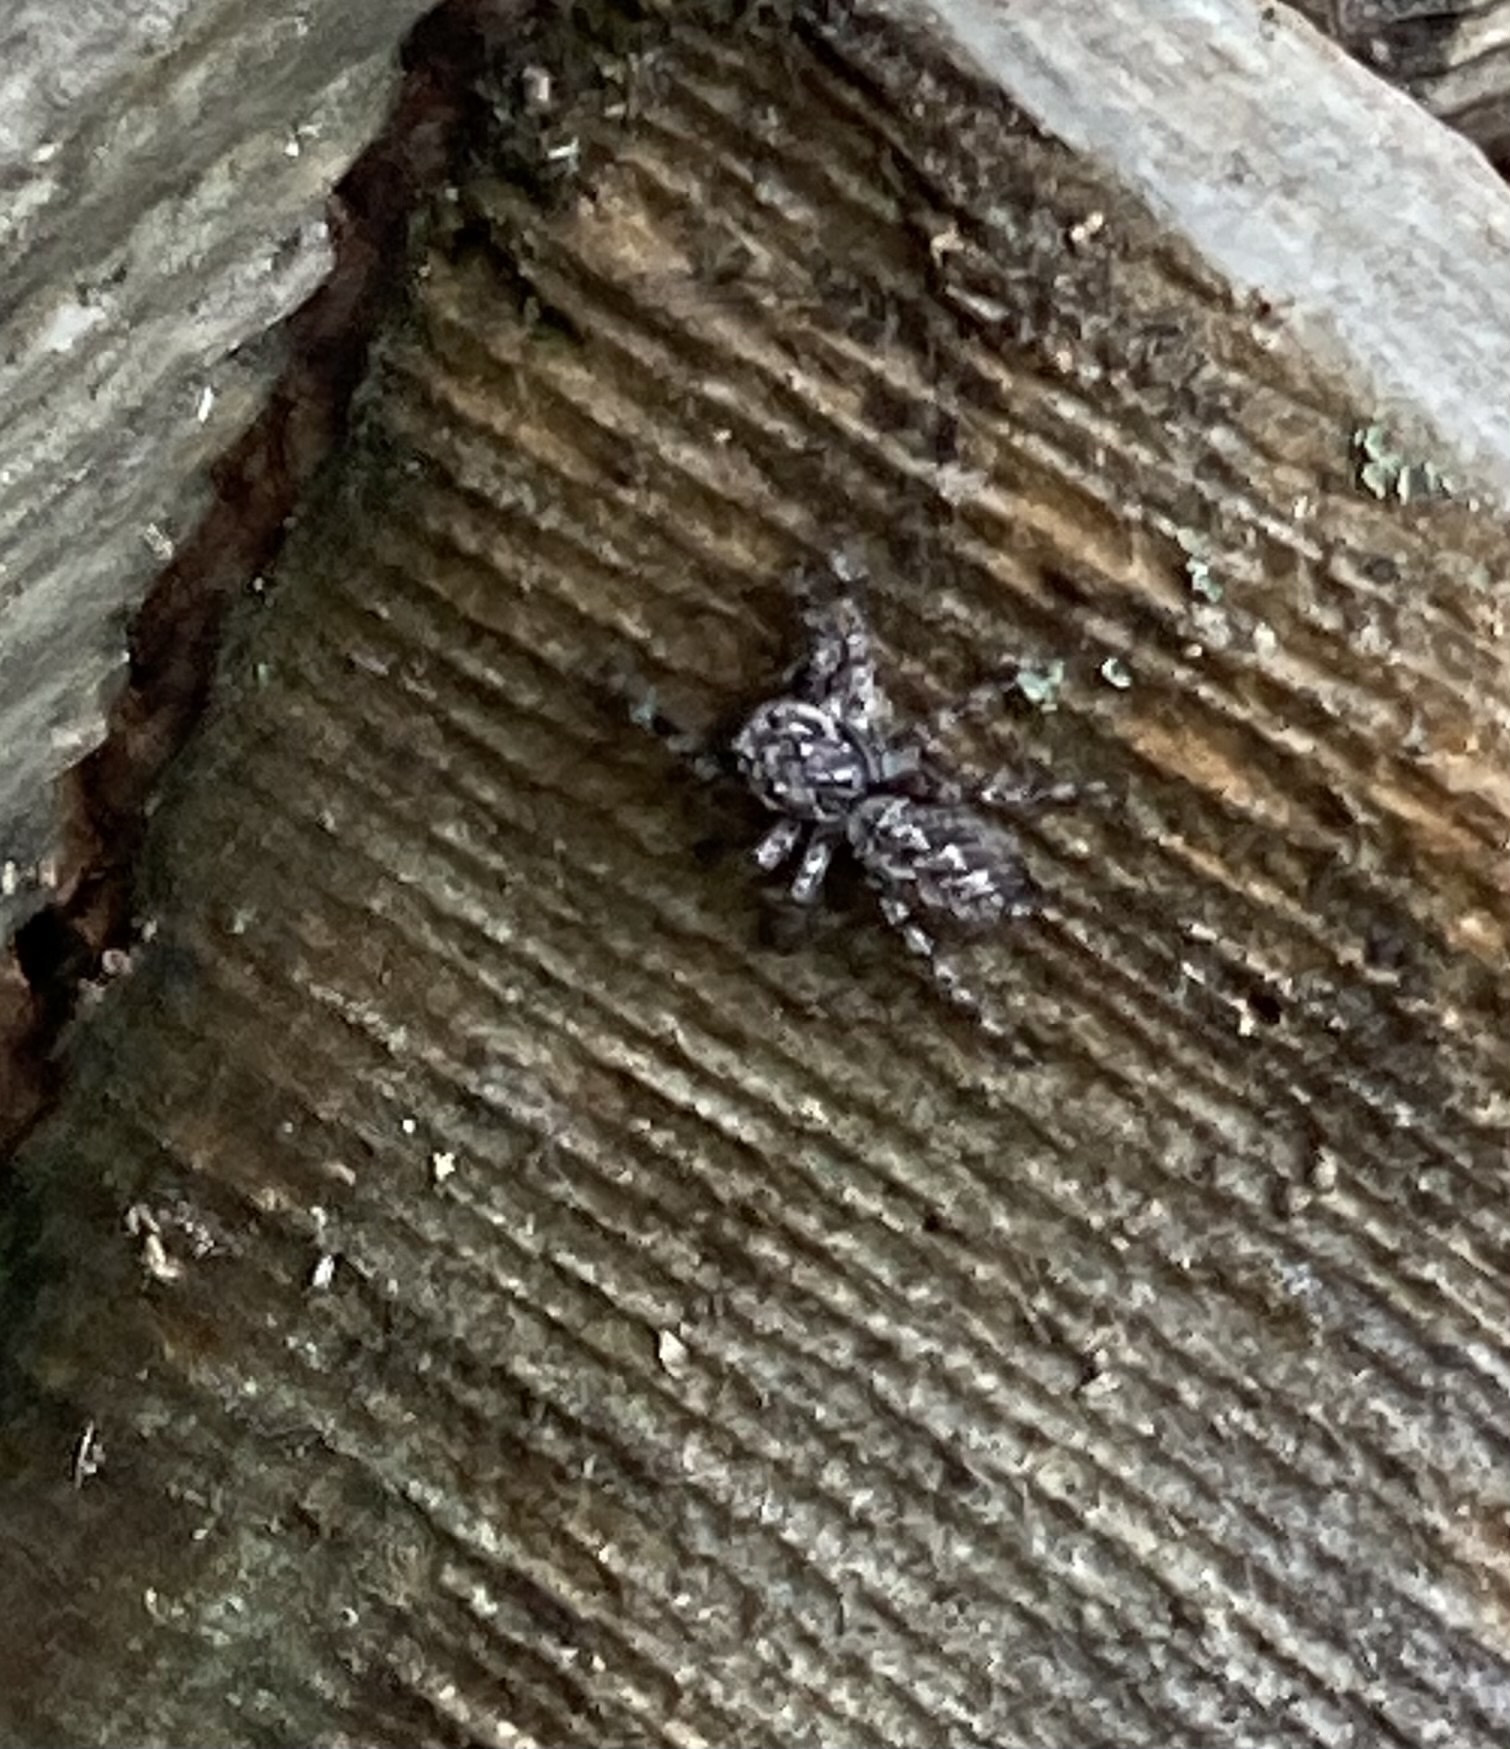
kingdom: Animalia
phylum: Arthropoda
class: Arachnida
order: Araneae
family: Salticidae
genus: Platycryptus
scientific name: Platycryptus undatus
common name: Tan jumping spider
